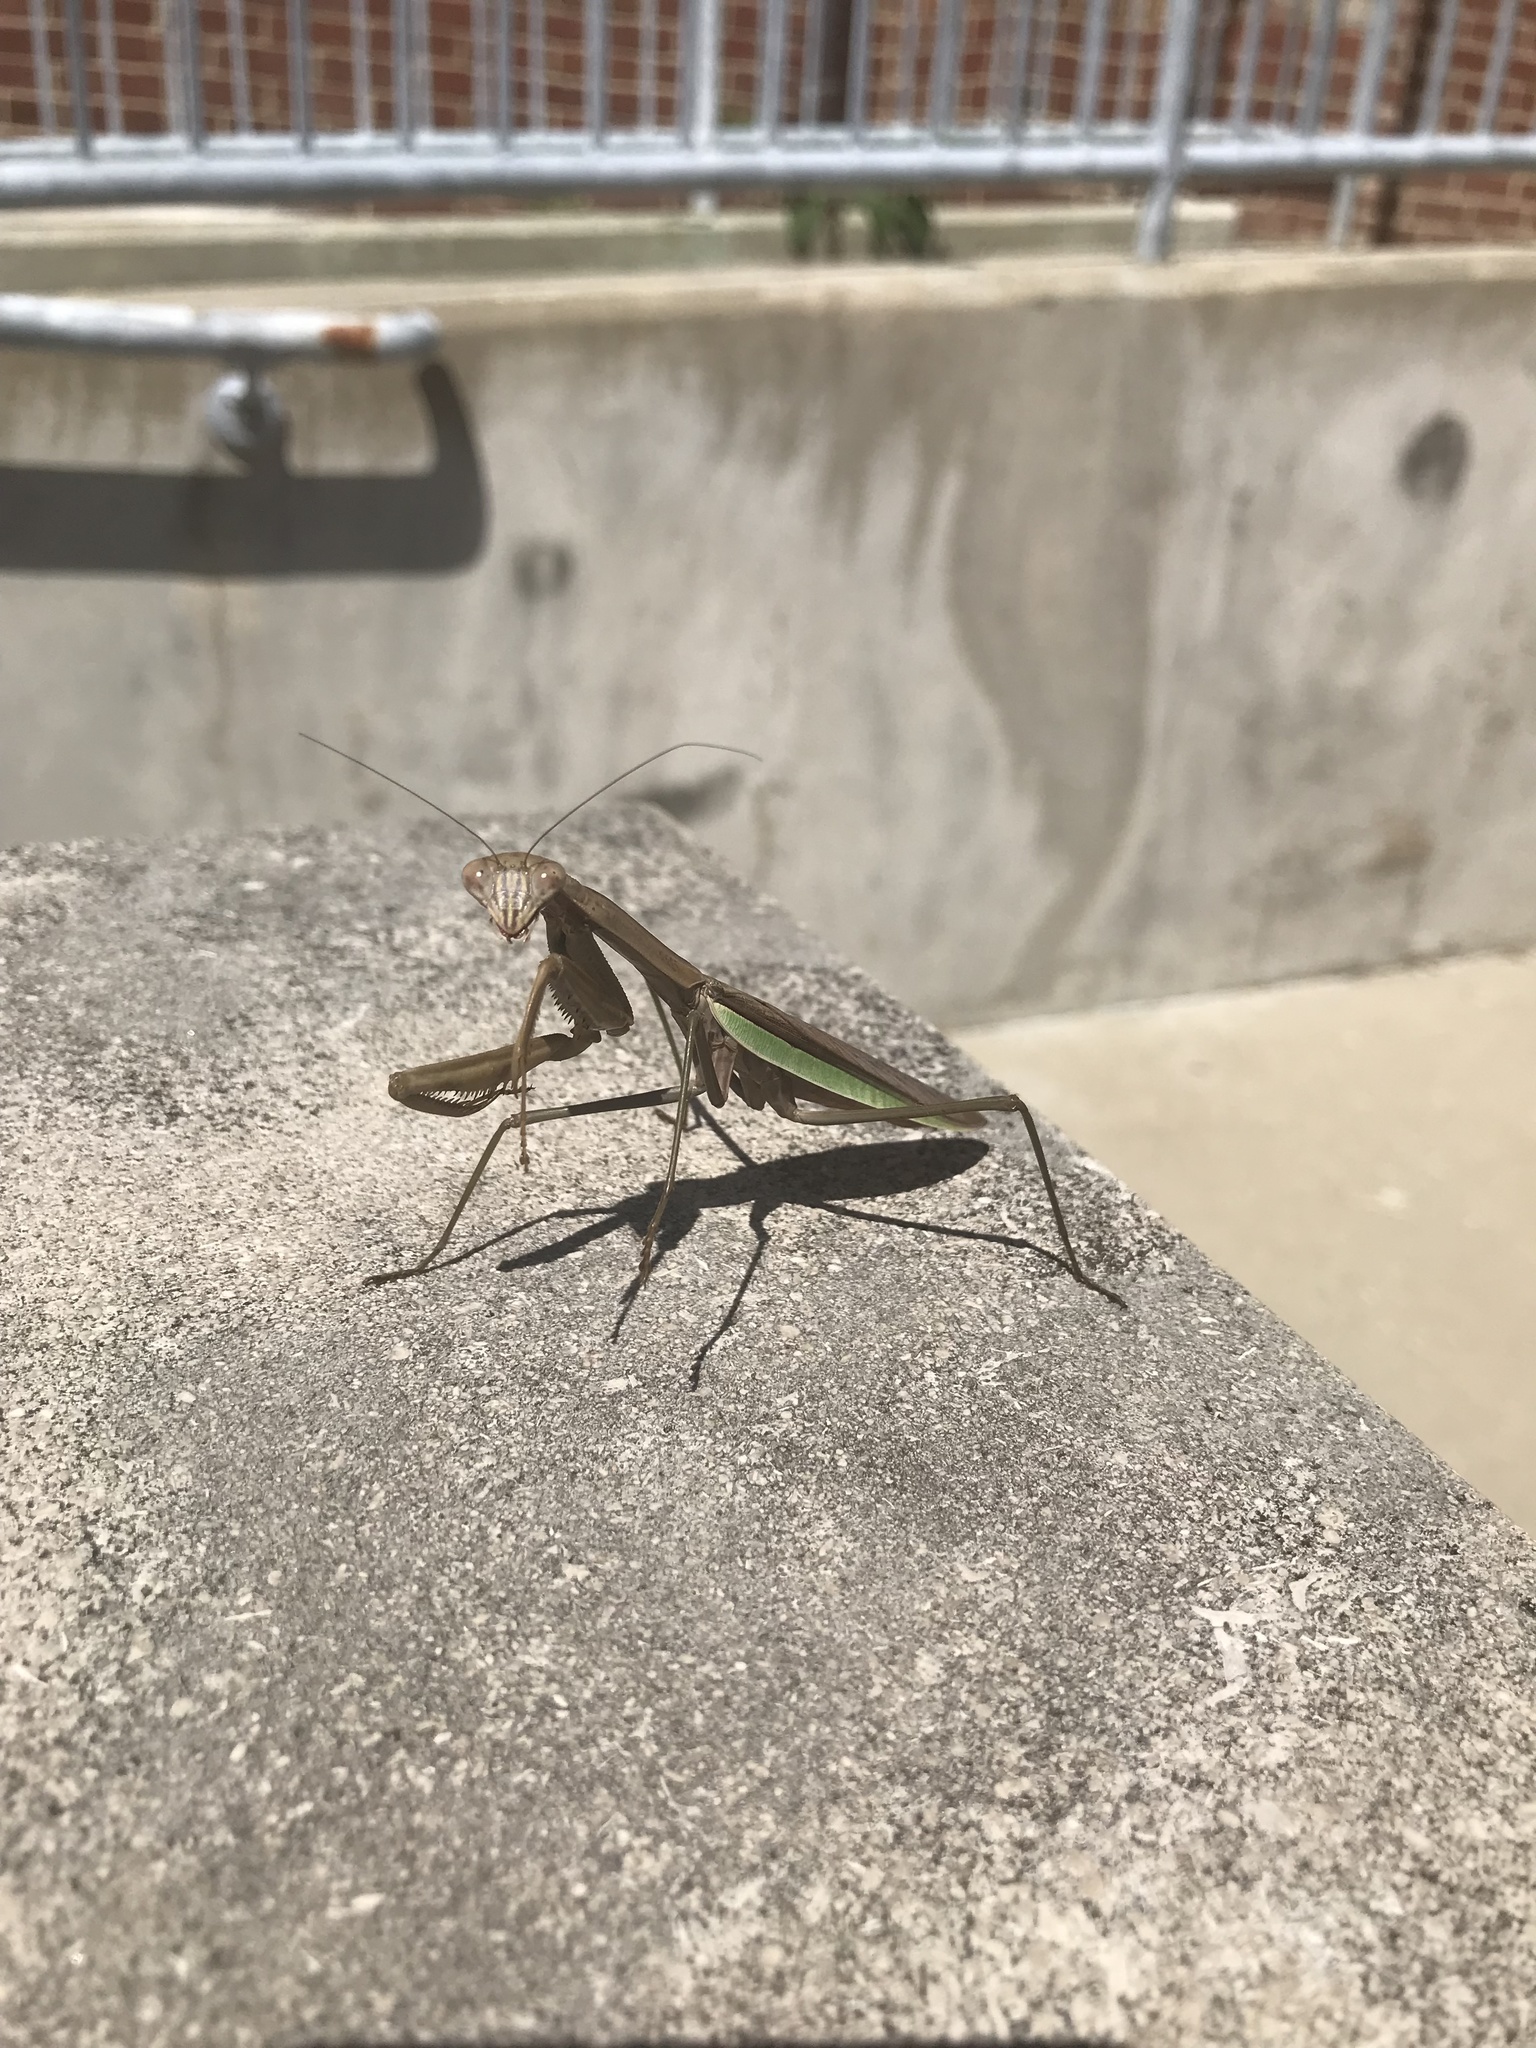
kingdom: Animalia
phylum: Arthropoda
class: Insecta
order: Mantodea
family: Mantidae
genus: Tenodera
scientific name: Tenodera sinensis
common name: Chinese mantis
